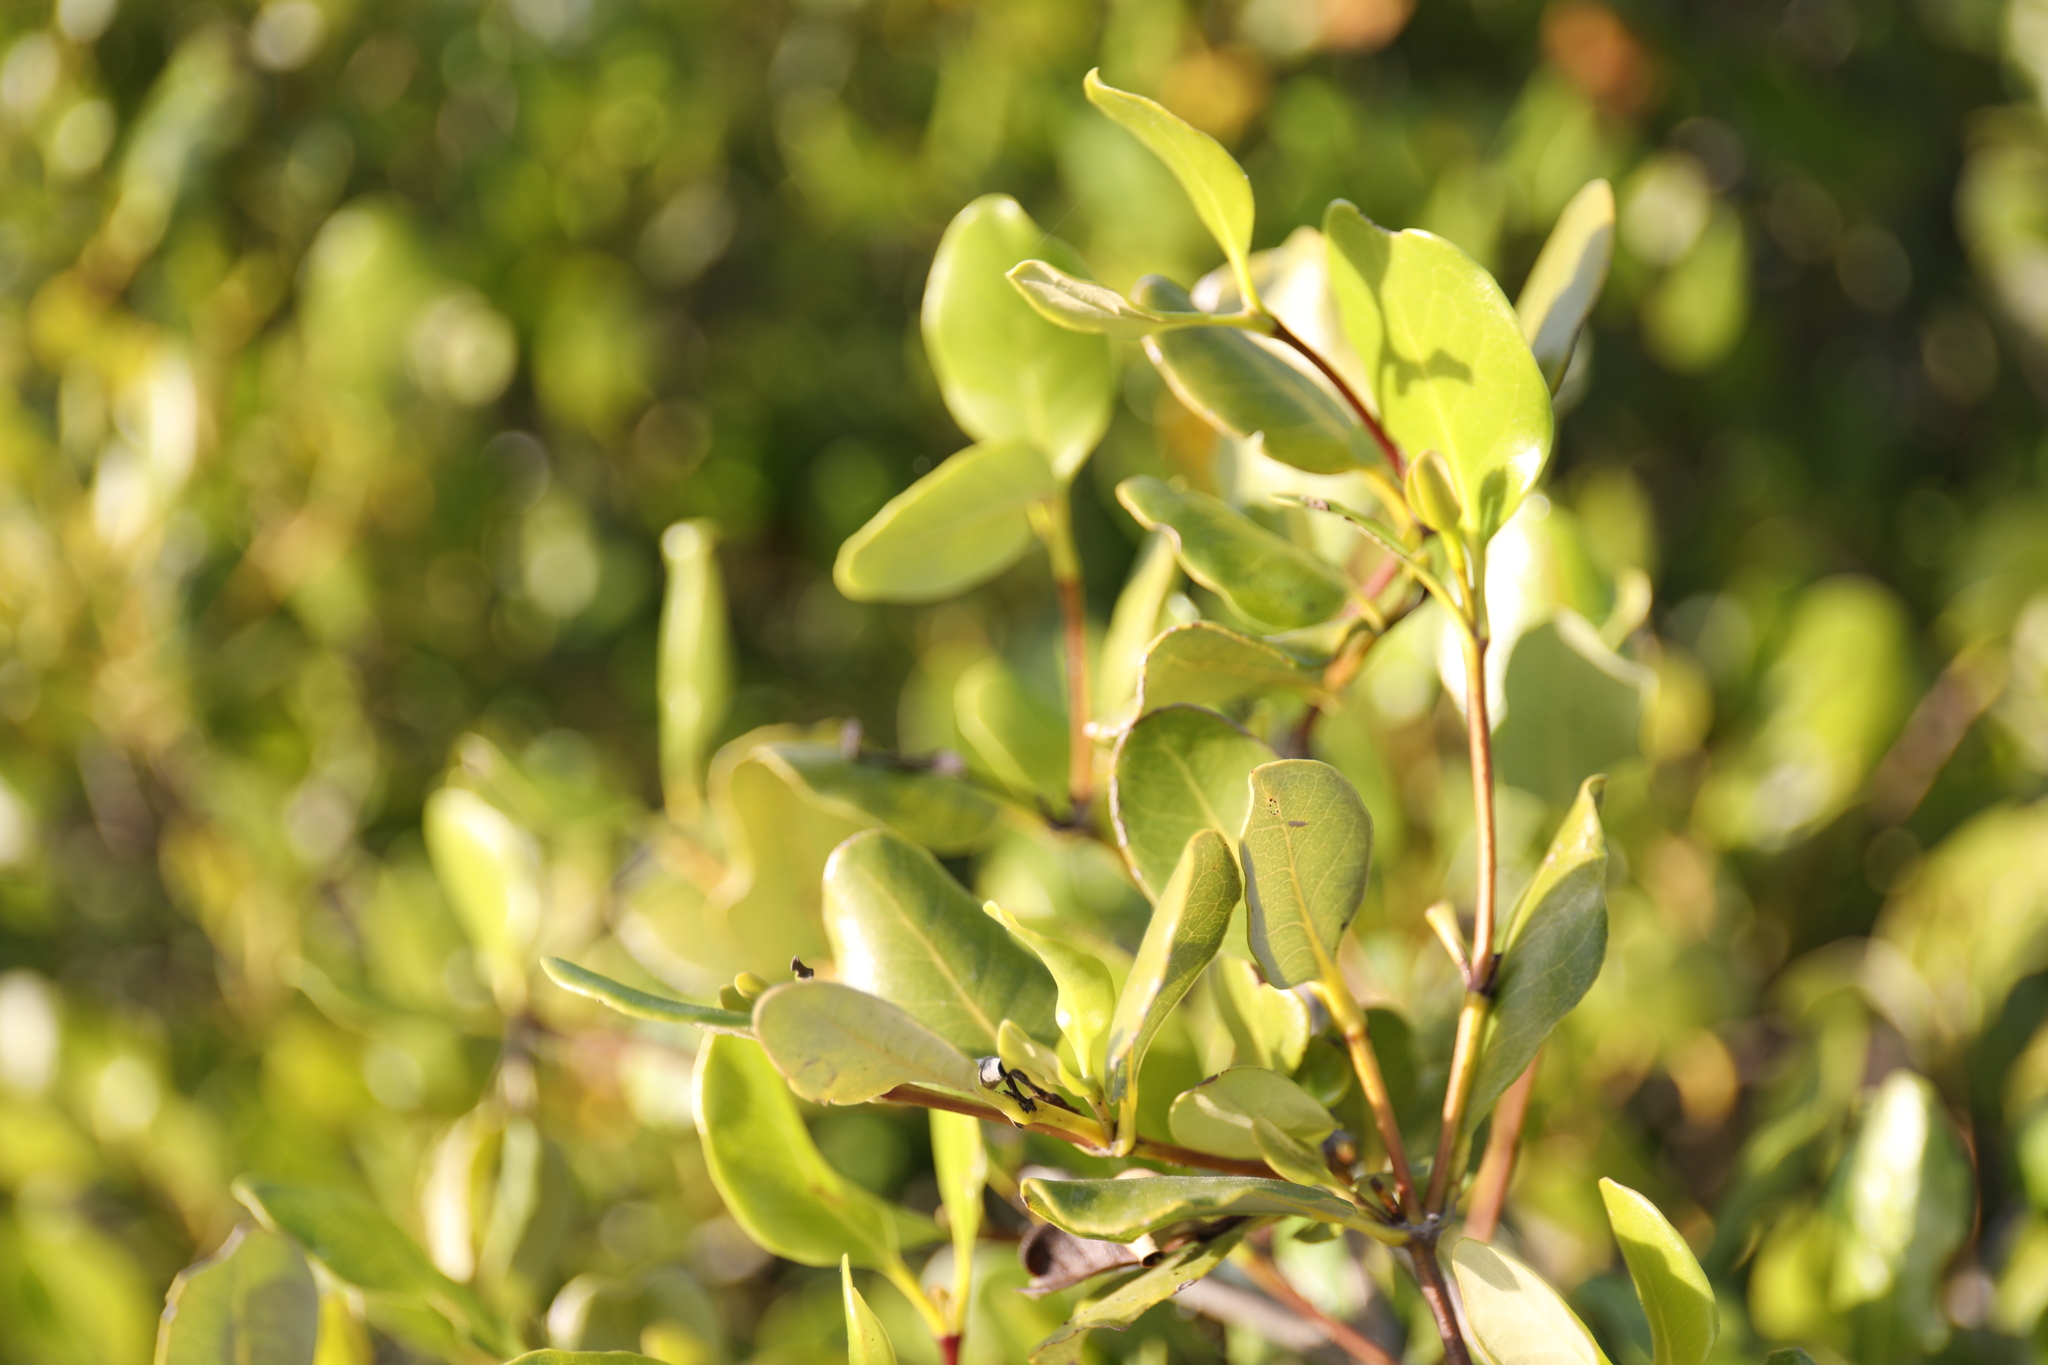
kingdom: Plantae
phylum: Tracheophyta
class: Magnoliopsida
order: Lamiales
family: Acanthaceae
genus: Avicennia
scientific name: Avicennia marina
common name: Gray mangrove
